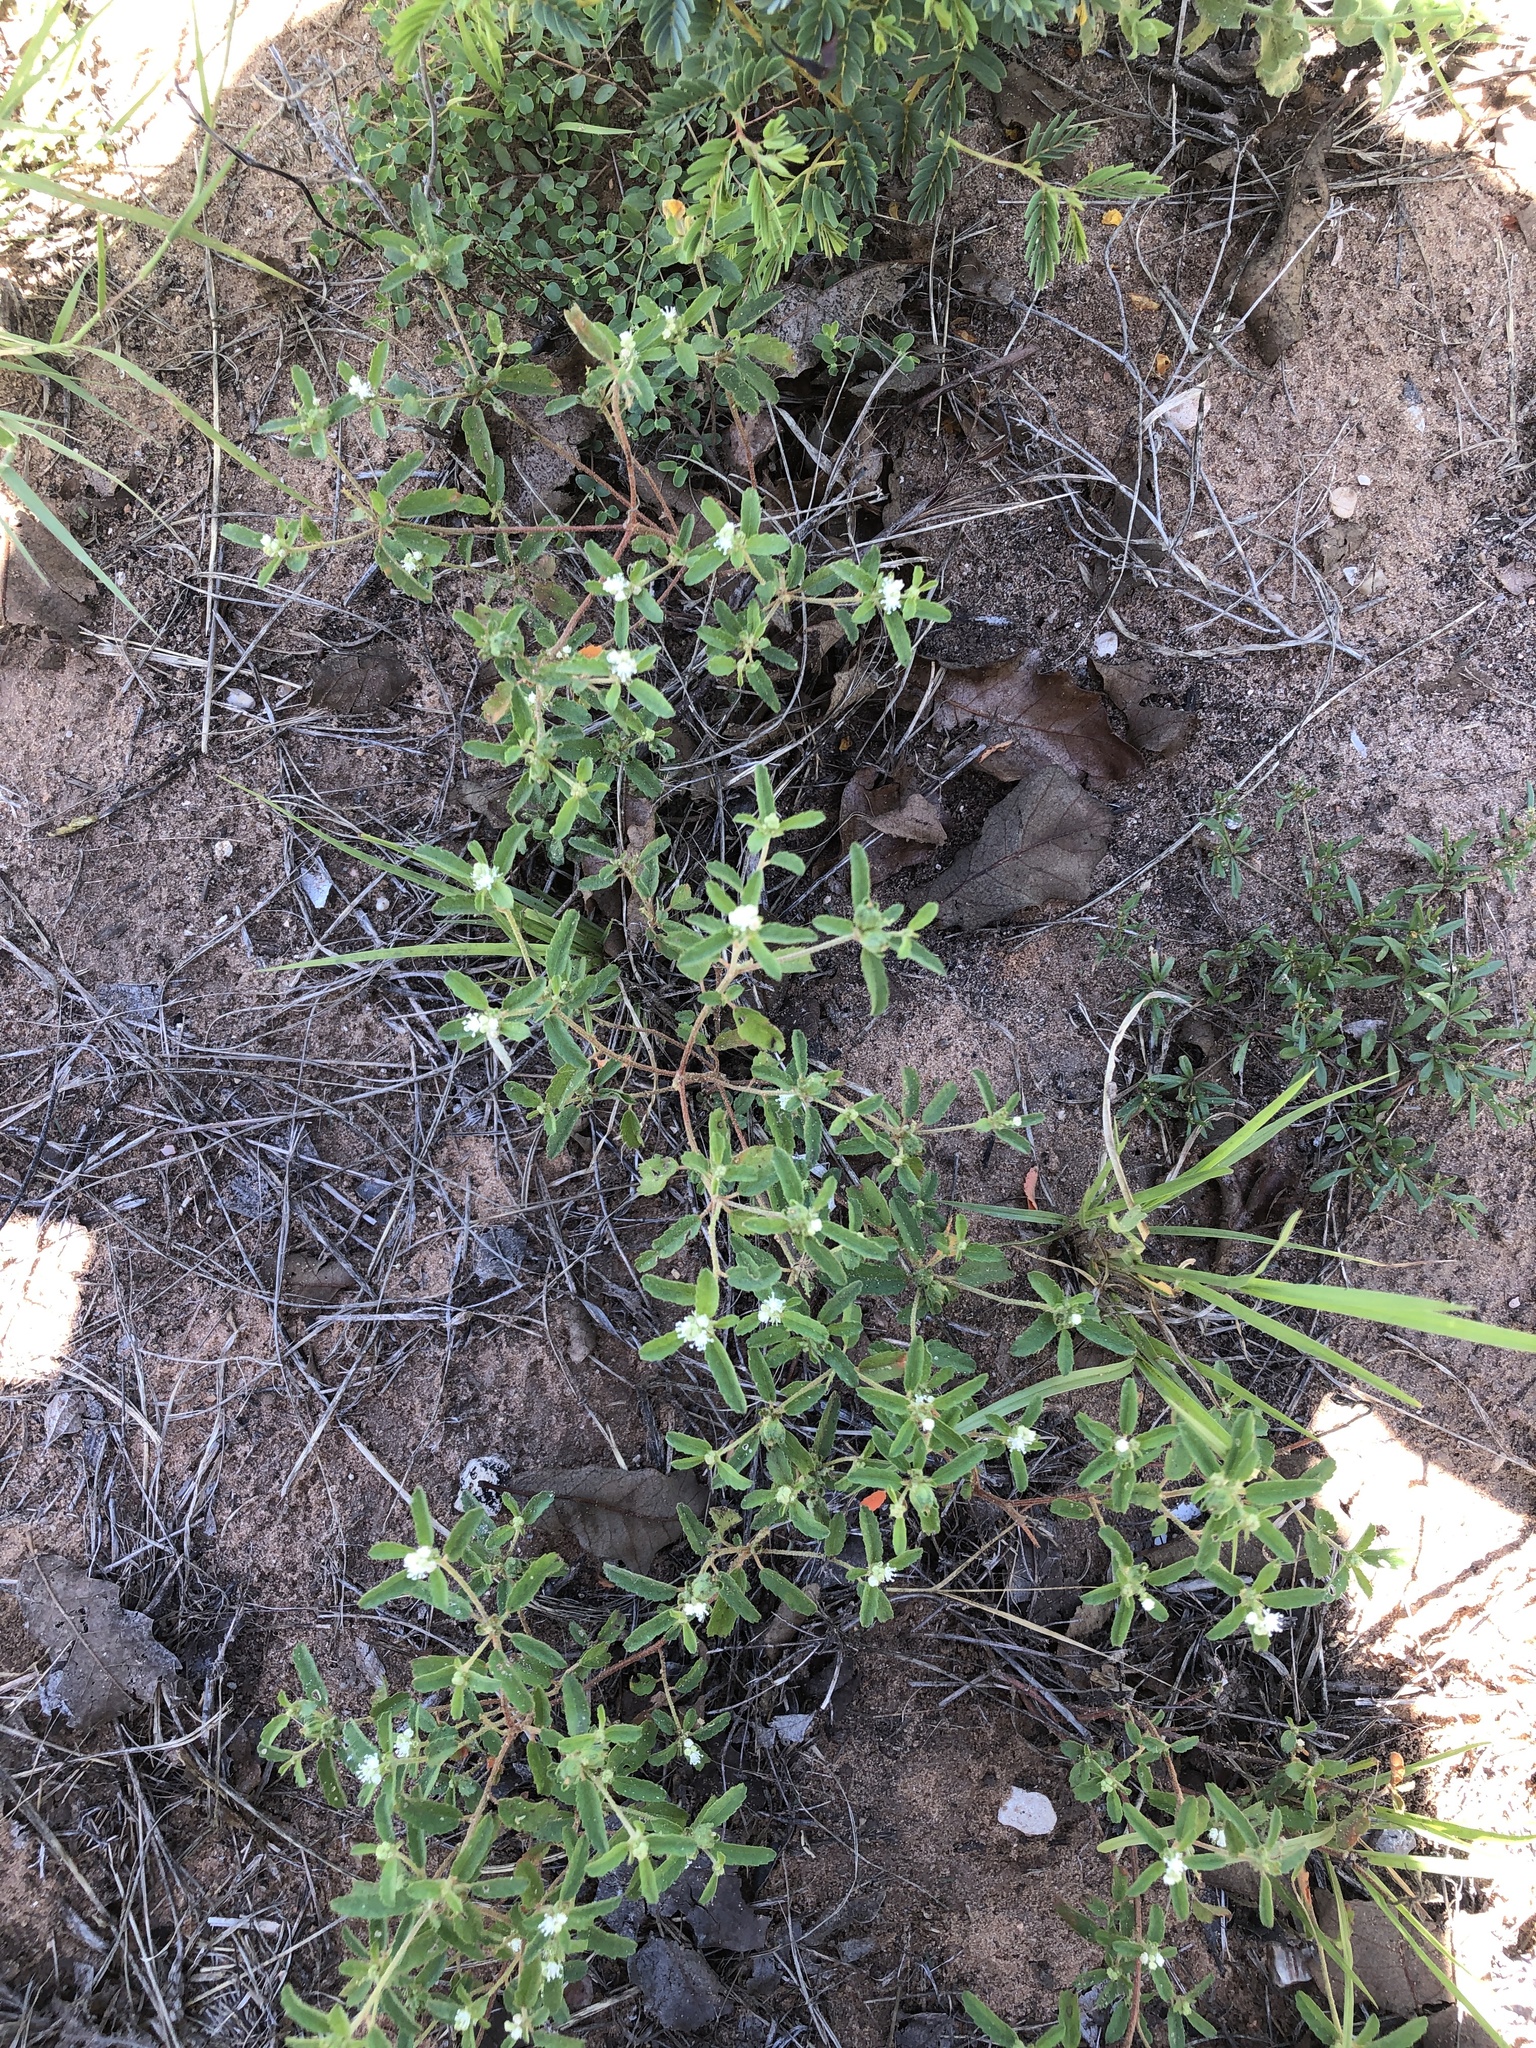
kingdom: Plantae
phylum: Tracheophyta
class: Magnoliopsida
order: Malpighiales
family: Euphorbiaceae
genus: Croton
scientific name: Croton glandulosus
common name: Tropic croton
